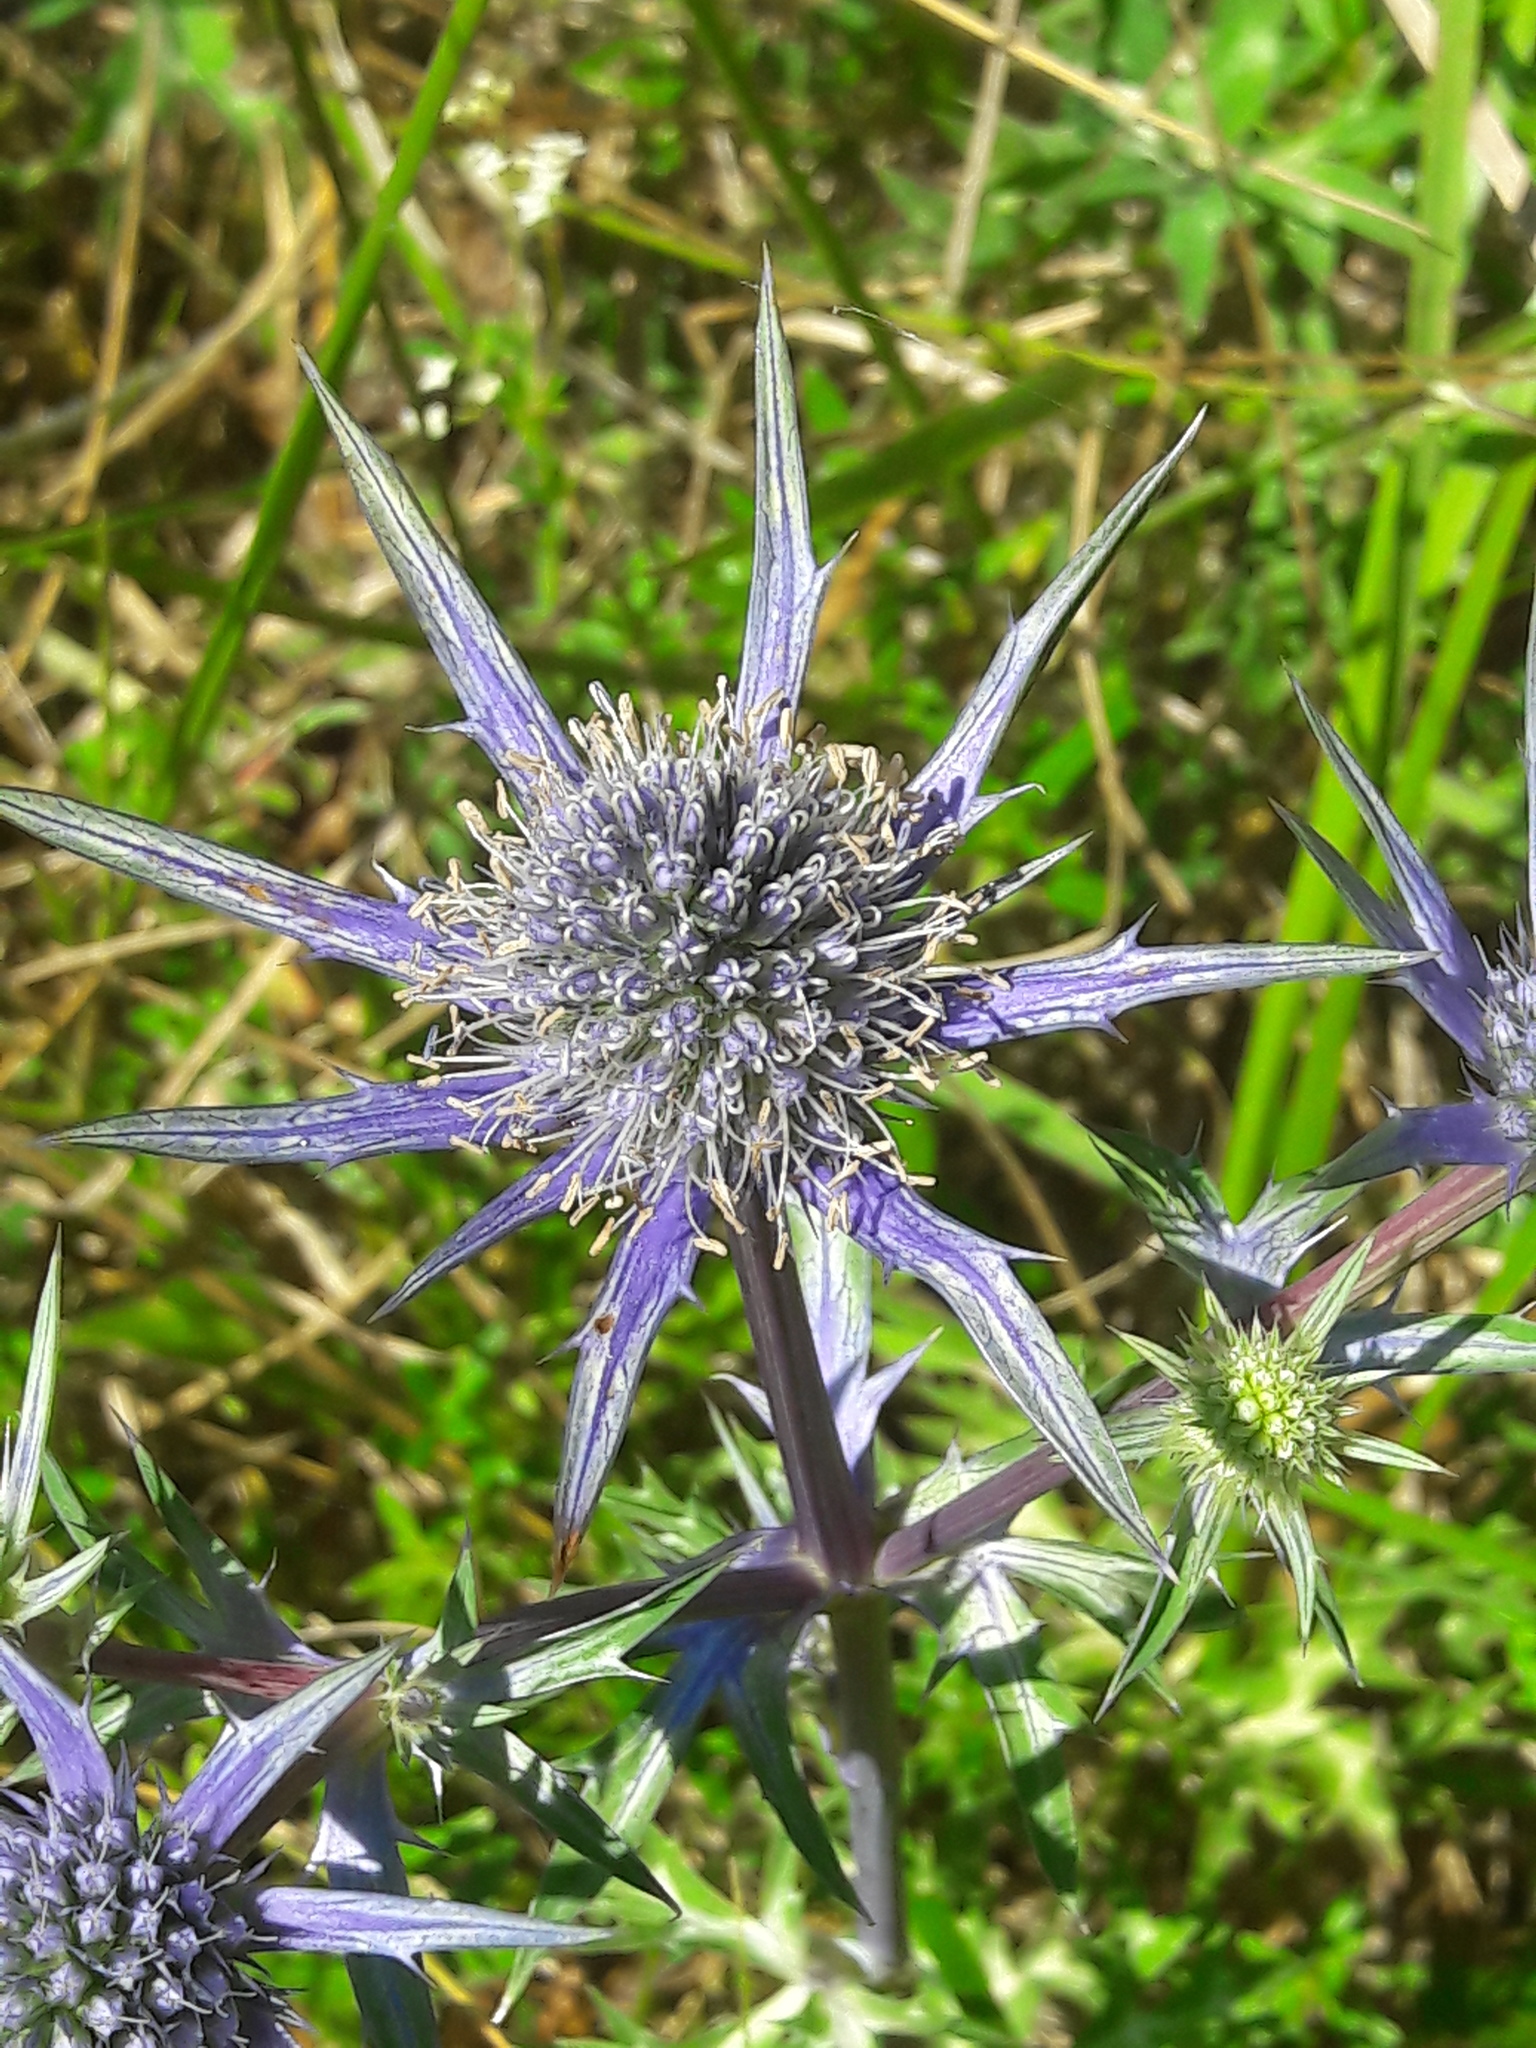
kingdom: Plantae
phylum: Tracheophyta
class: Magnoliopsida
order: Apiales
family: Apiaceae
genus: Eryngium
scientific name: Eryngium bourgatii
